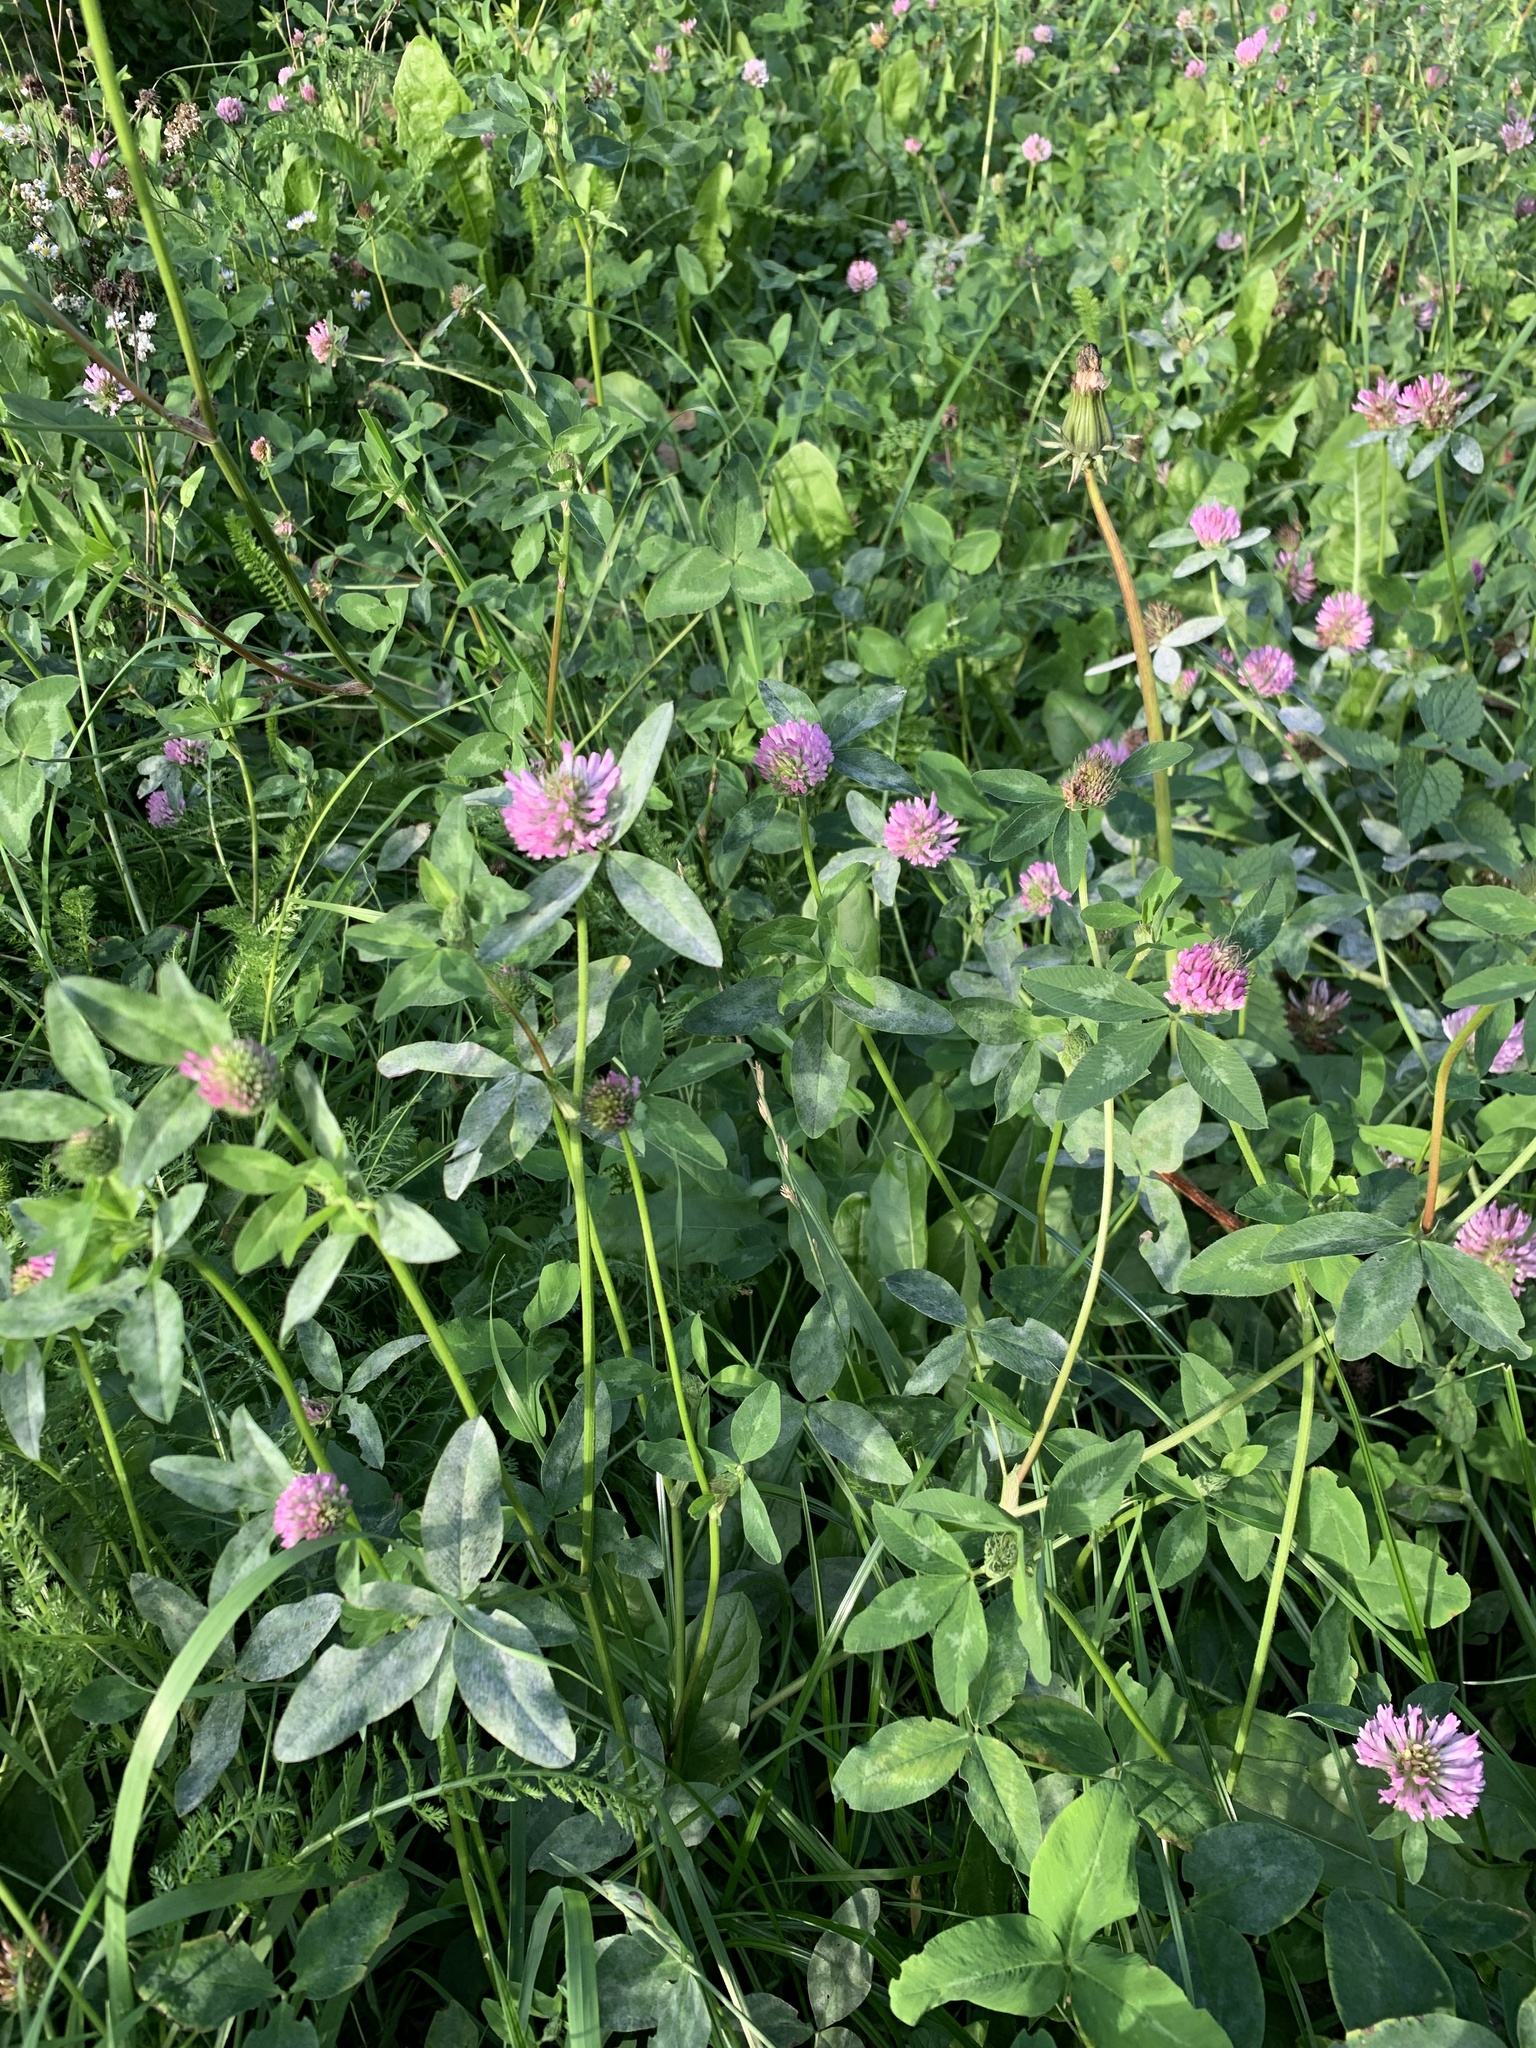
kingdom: Plantae
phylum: Tracheophyta
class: Magnoliopsida
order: Fabales
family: Fabaceae
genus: Trifolium
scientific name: Trifolium pratense
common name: Red clover
